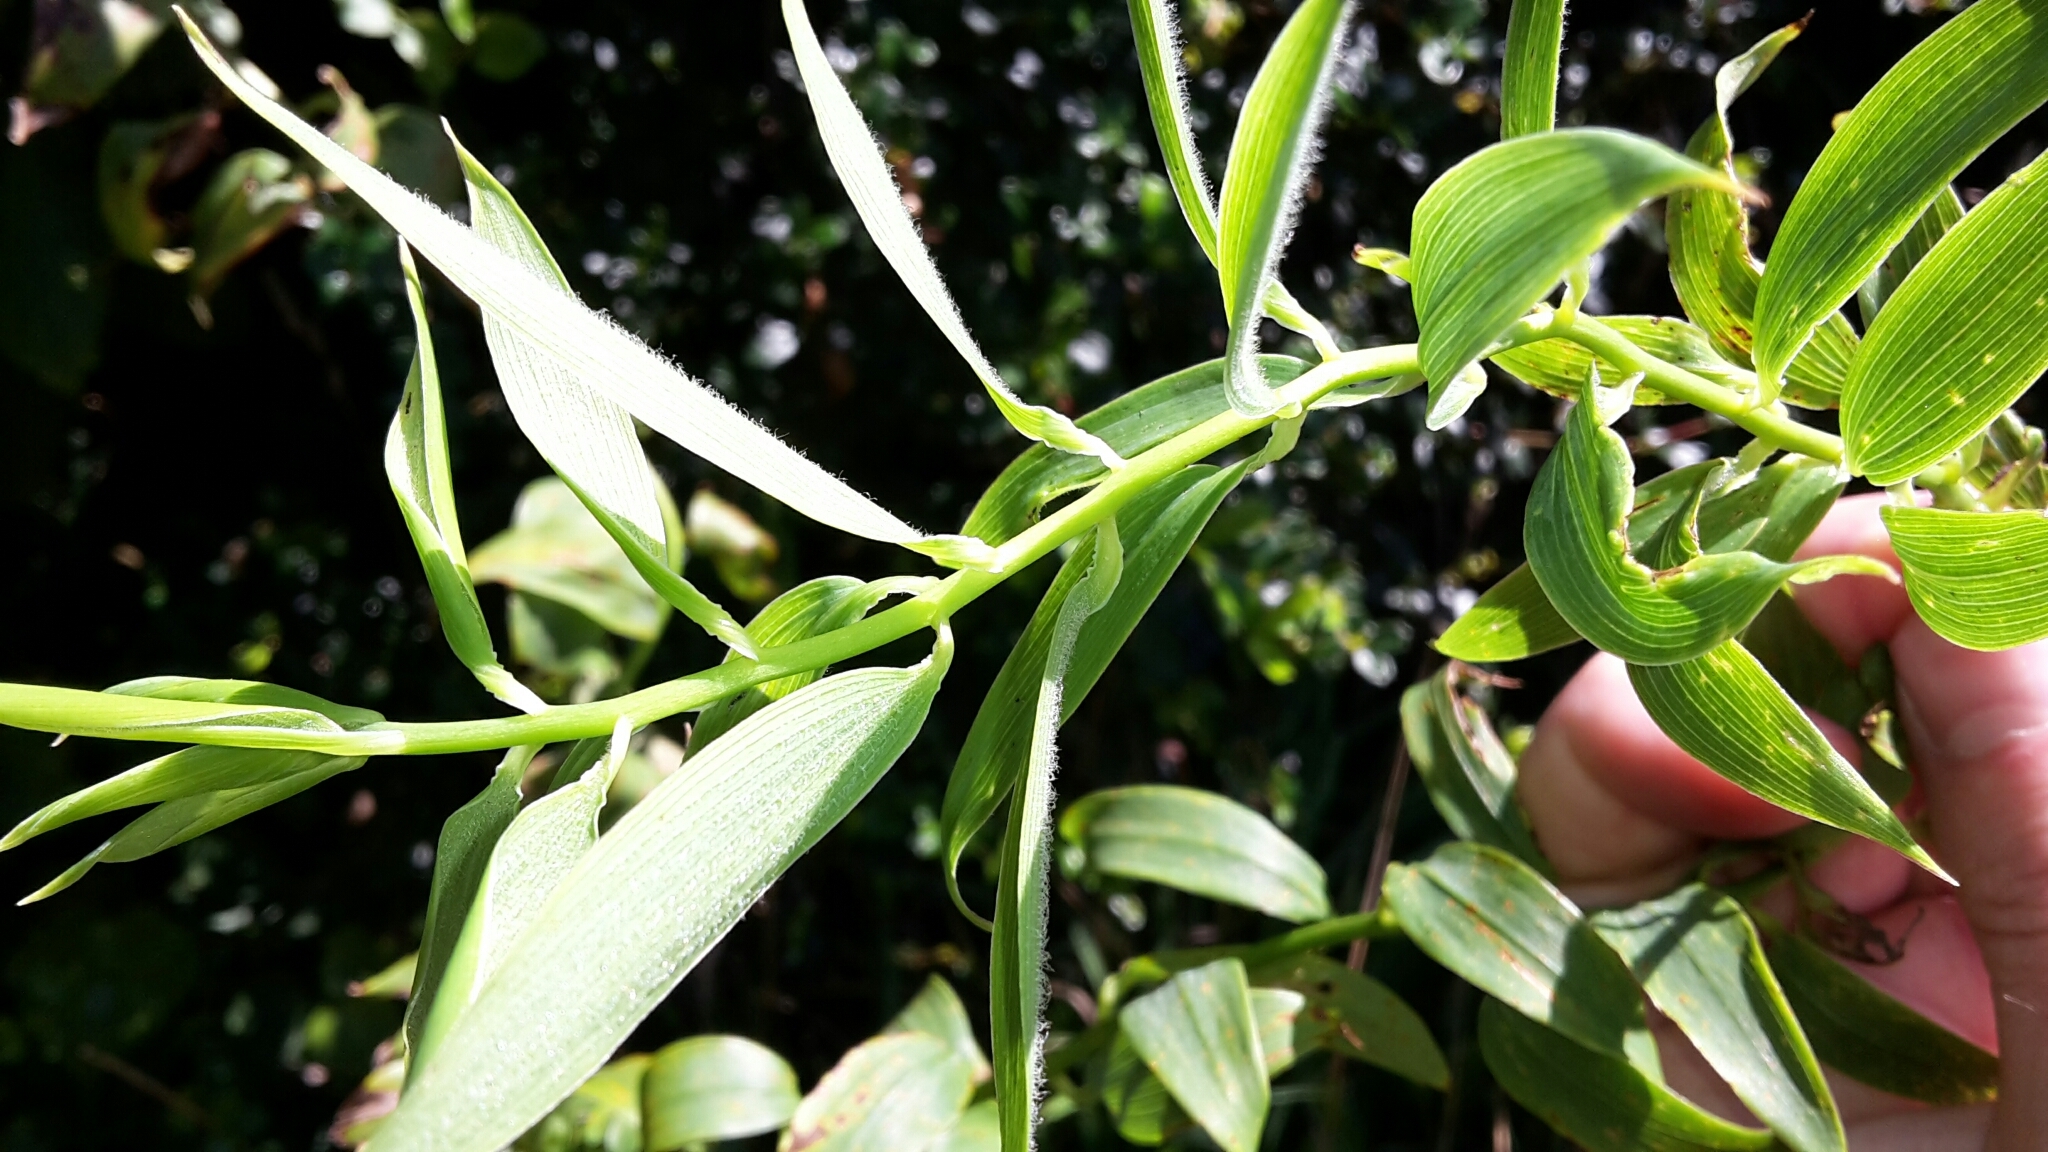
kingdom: Plantae
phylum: Tracheophyta
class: Liliopsida
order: Liliales
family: Alstroemeriaceae
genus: Bomarea
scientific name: Bomarea multiflora
